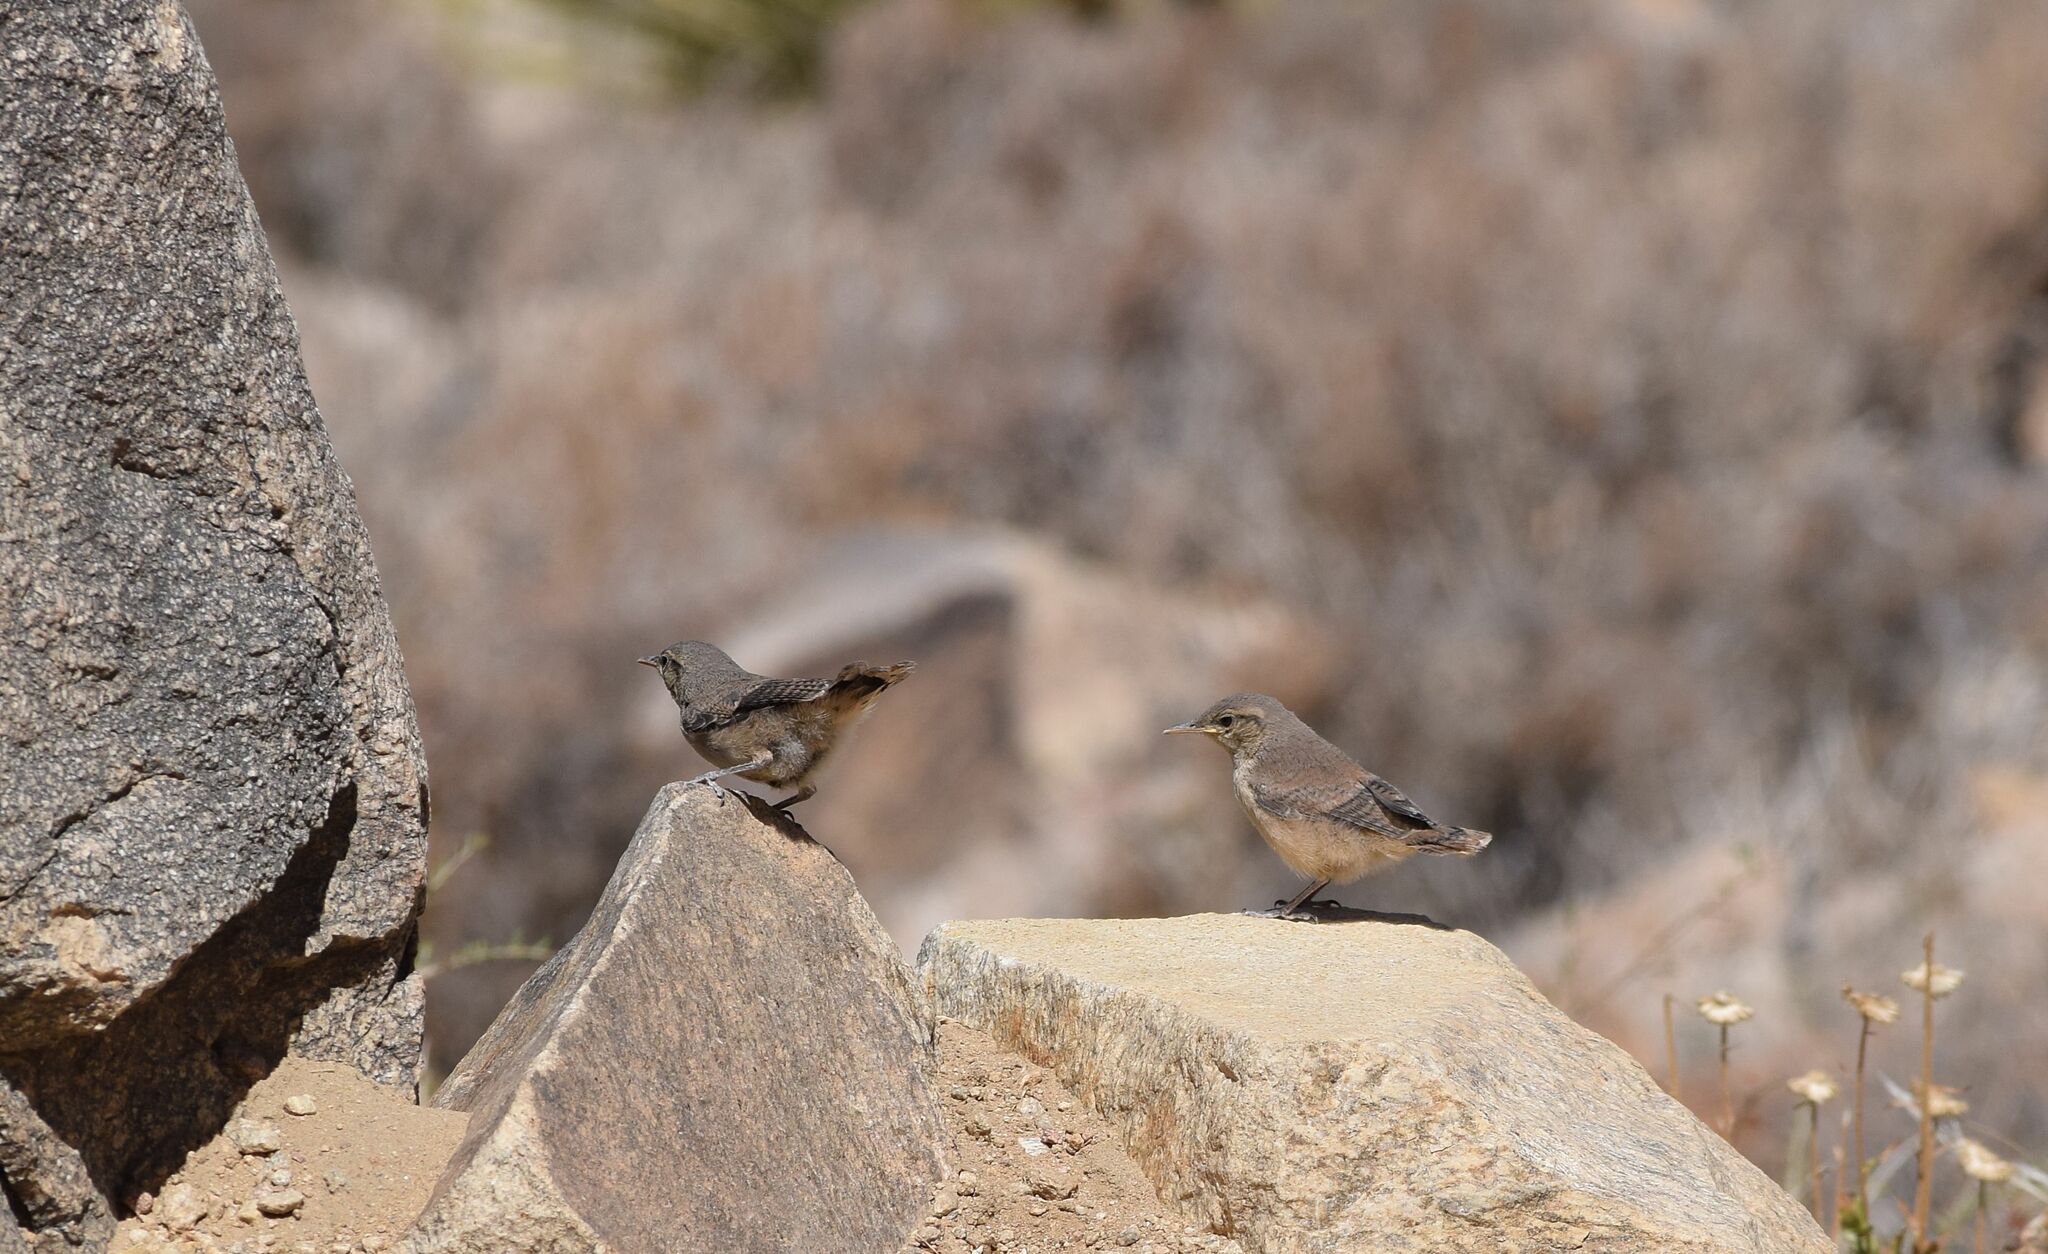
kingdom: Animalia
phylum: Chordata
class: Aves
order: Passeriformes
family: Troglodytidae
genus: Salpinctes
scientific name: Salpinctes obsoletus
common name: Rock wren
